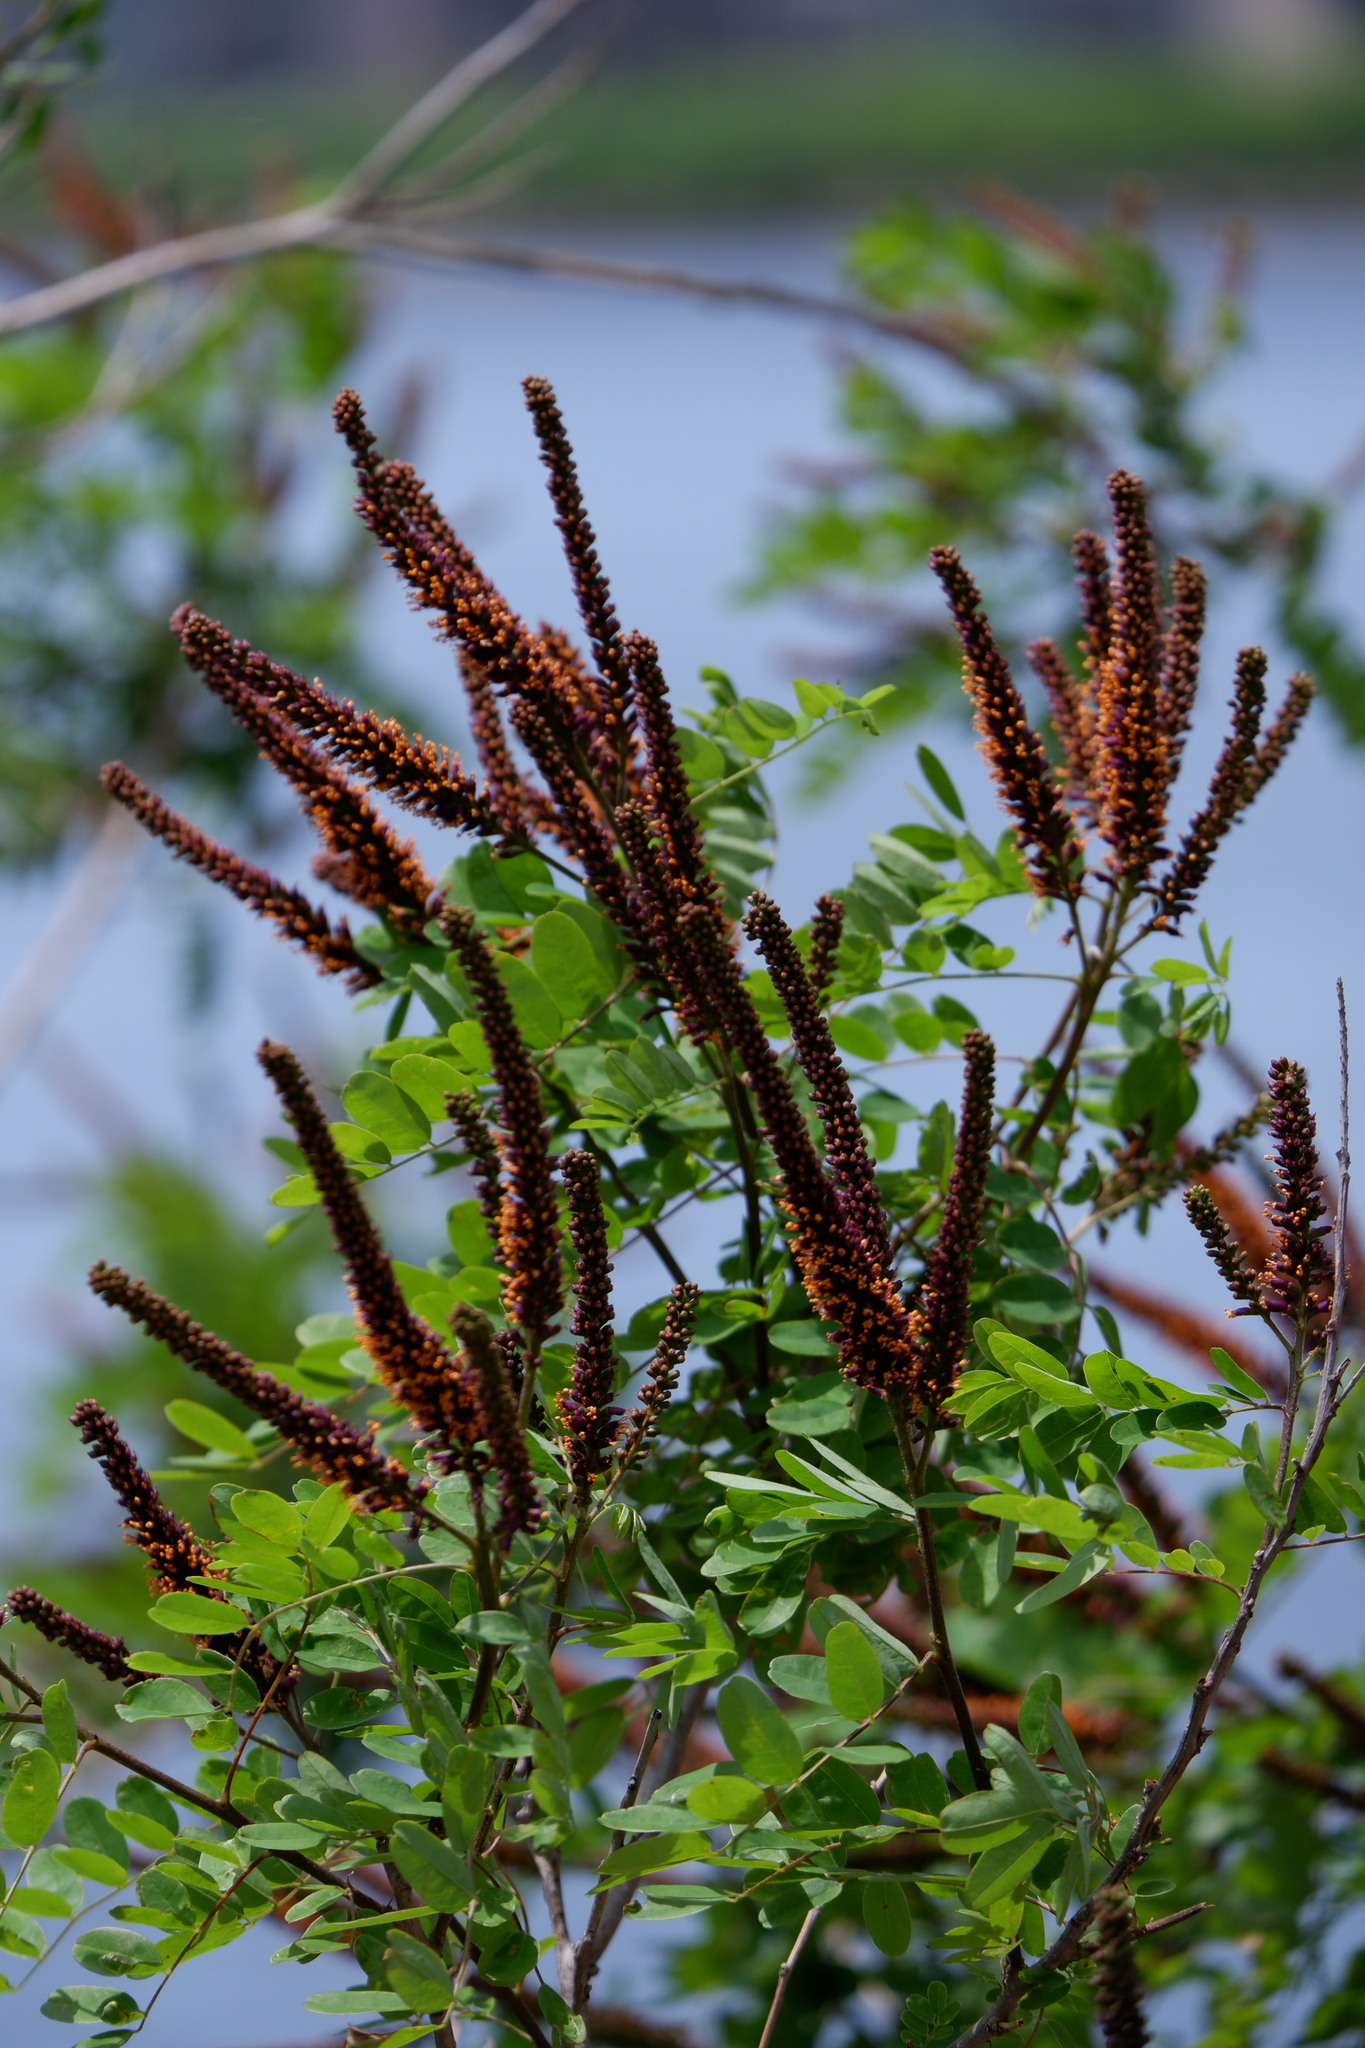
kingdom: Plantae
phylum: Tracheophyta
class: Magnoliopsida
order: Fabales
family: Fabaceae
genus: Amorpha
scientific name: Amorpha fruticosa
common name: False indigo
